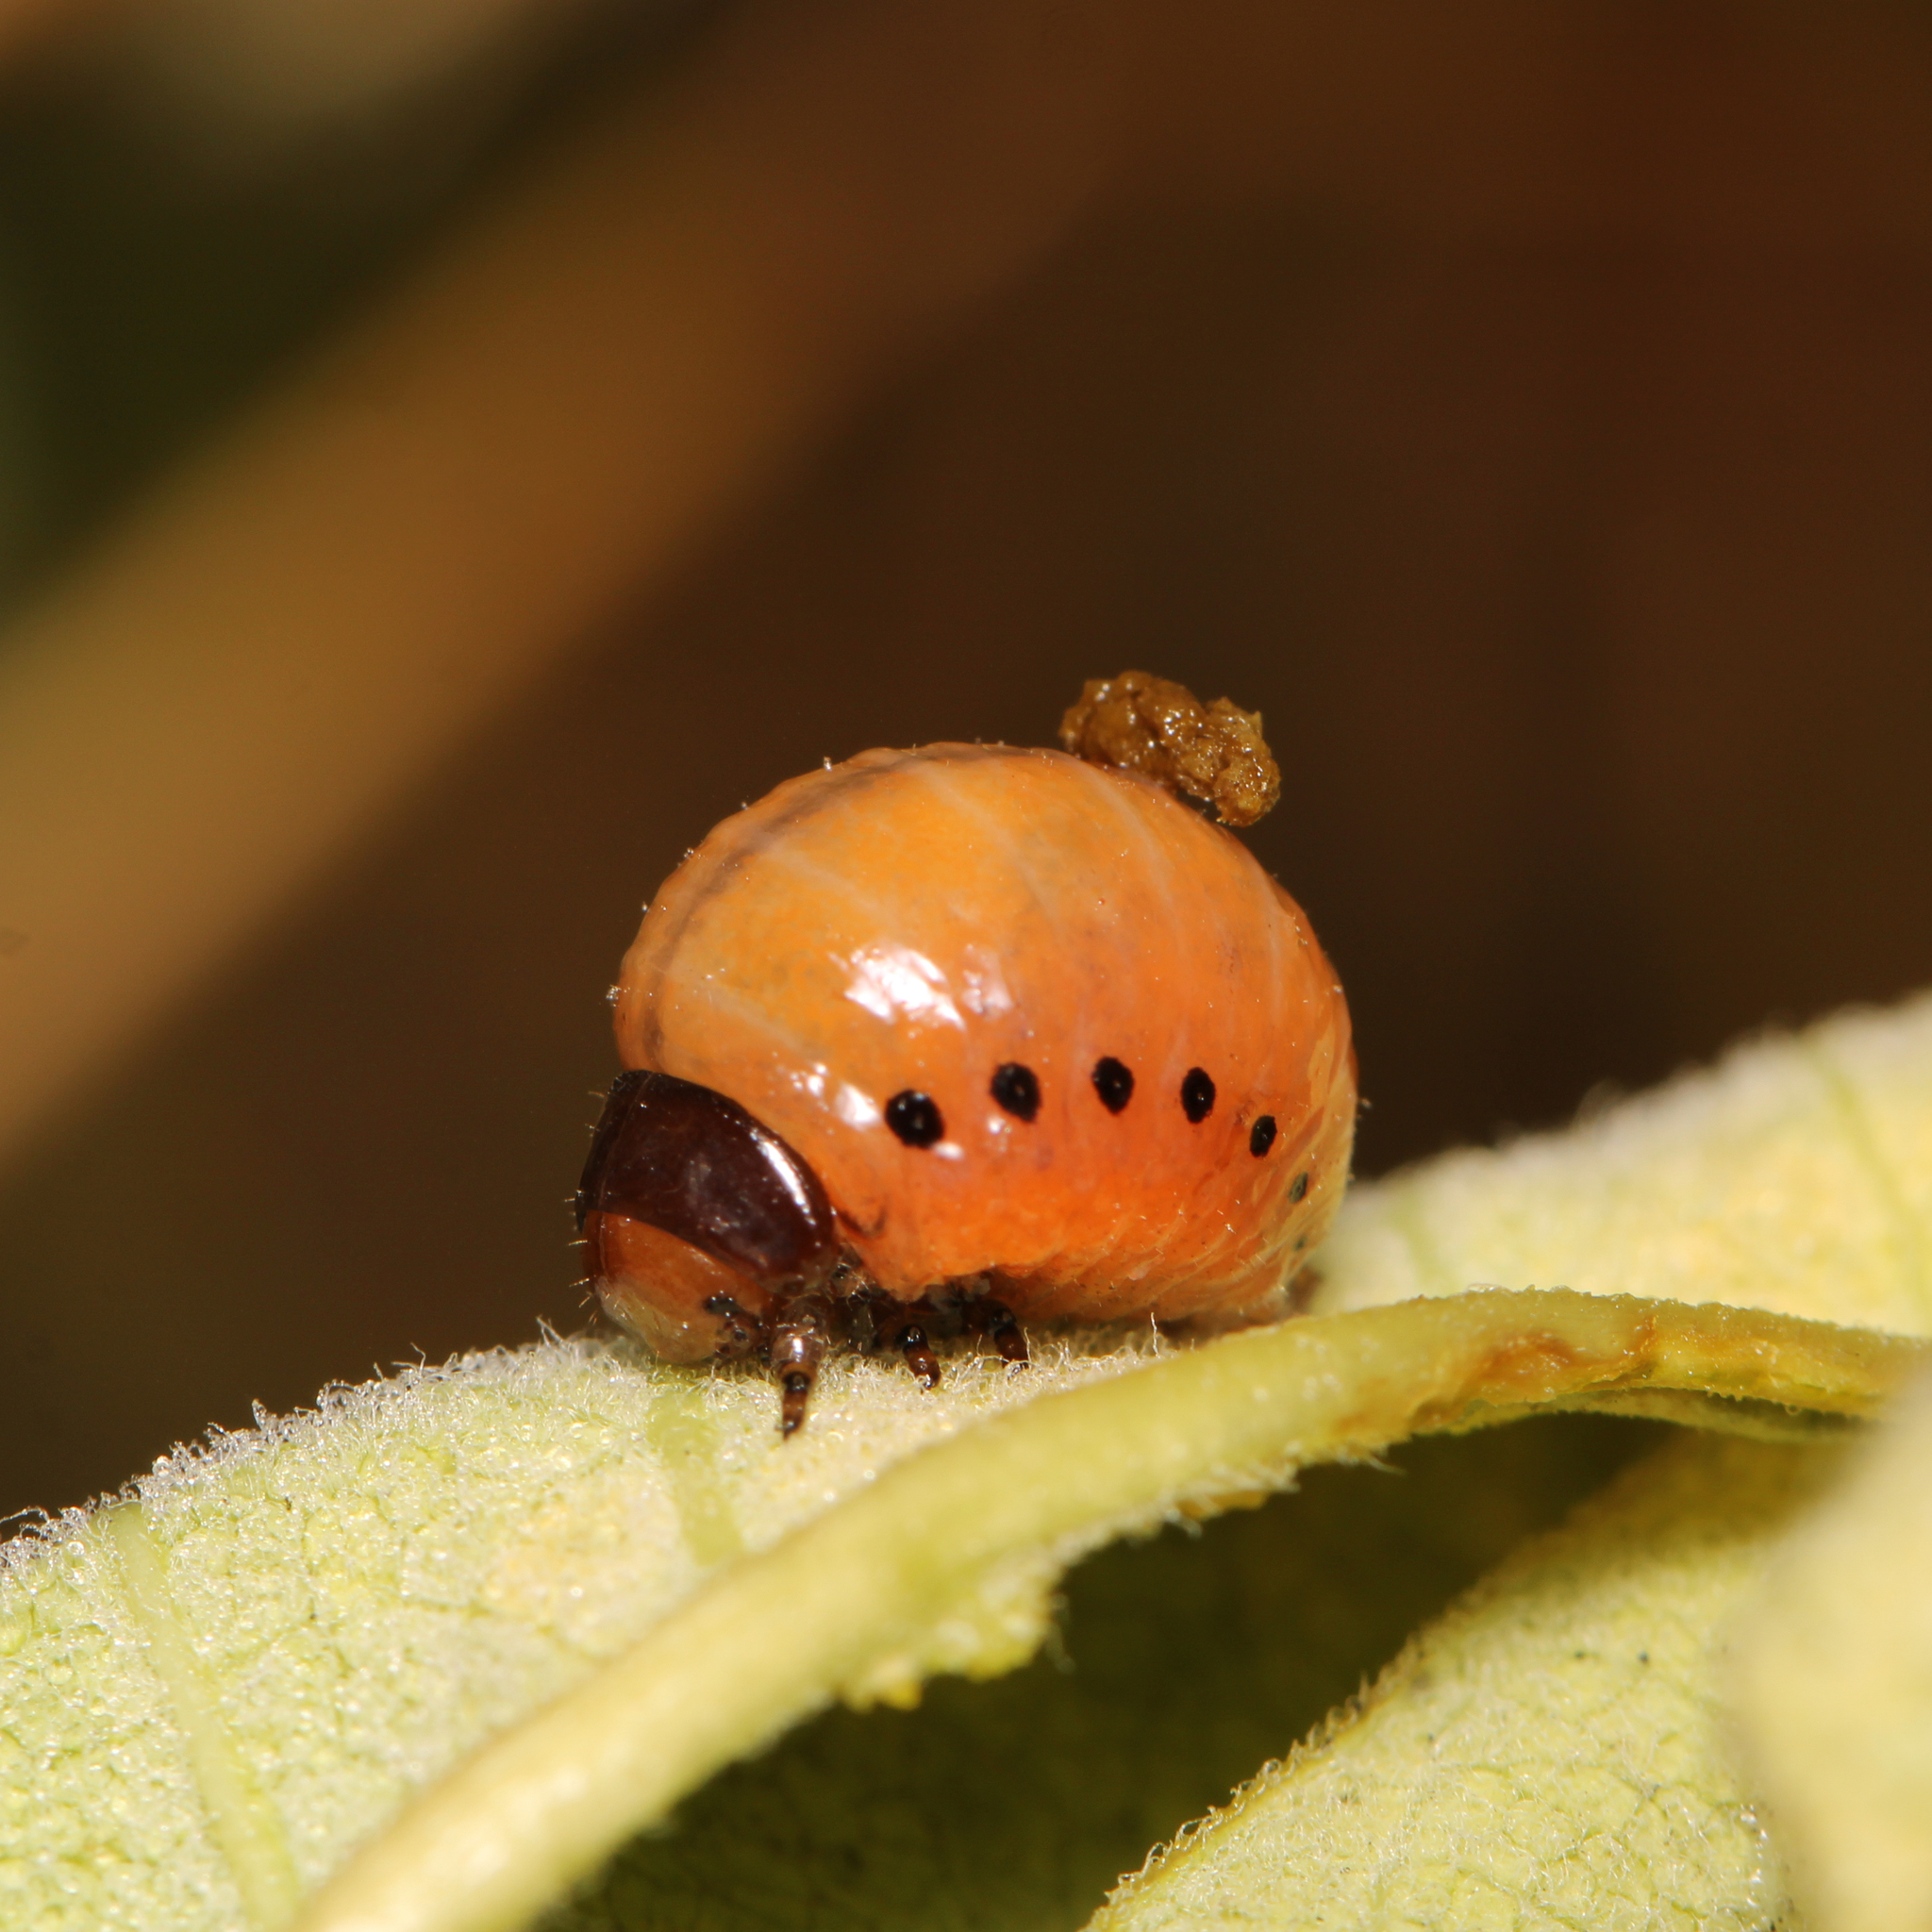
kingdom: Animalia
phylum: Arthropoda
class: Insecta
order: Coleoptera
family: Chrysomelidae
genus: Labidomera
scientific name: Labidomera clivicollis
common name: Swamp milkweed leaf beetle
